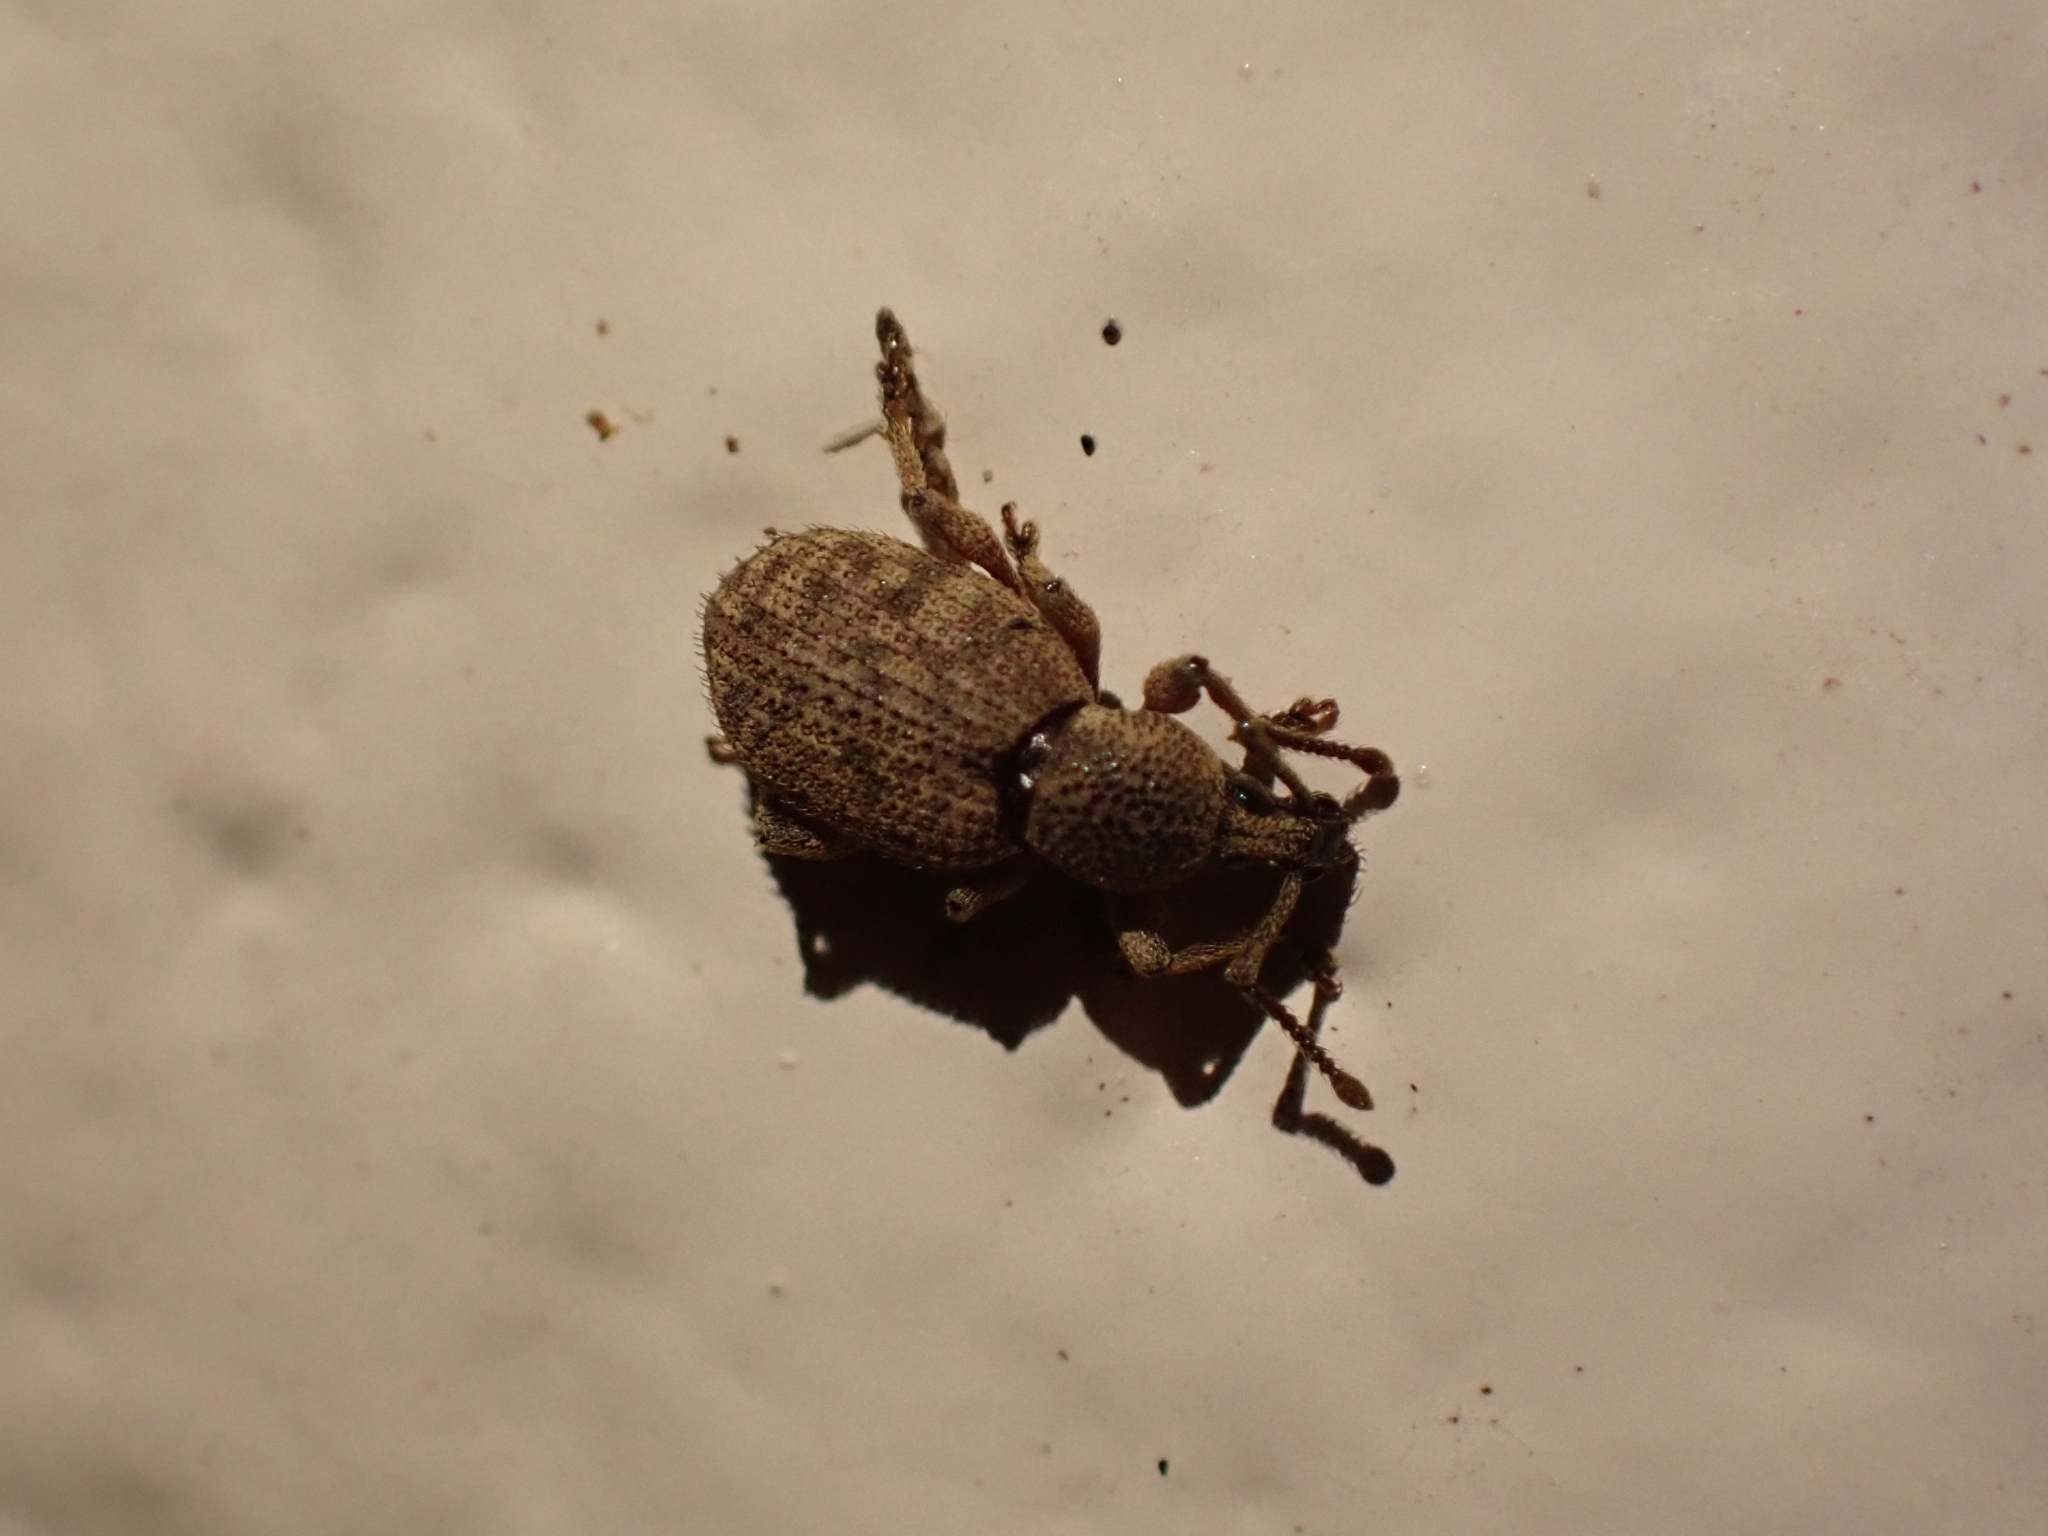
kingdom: Animalia
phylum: Arthropoda
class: Insecta
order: Coleoptera
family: Curculionidae
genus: Otiorhynchus
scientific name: Otiorhynchus singularis
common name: Clay-coloured weevil
